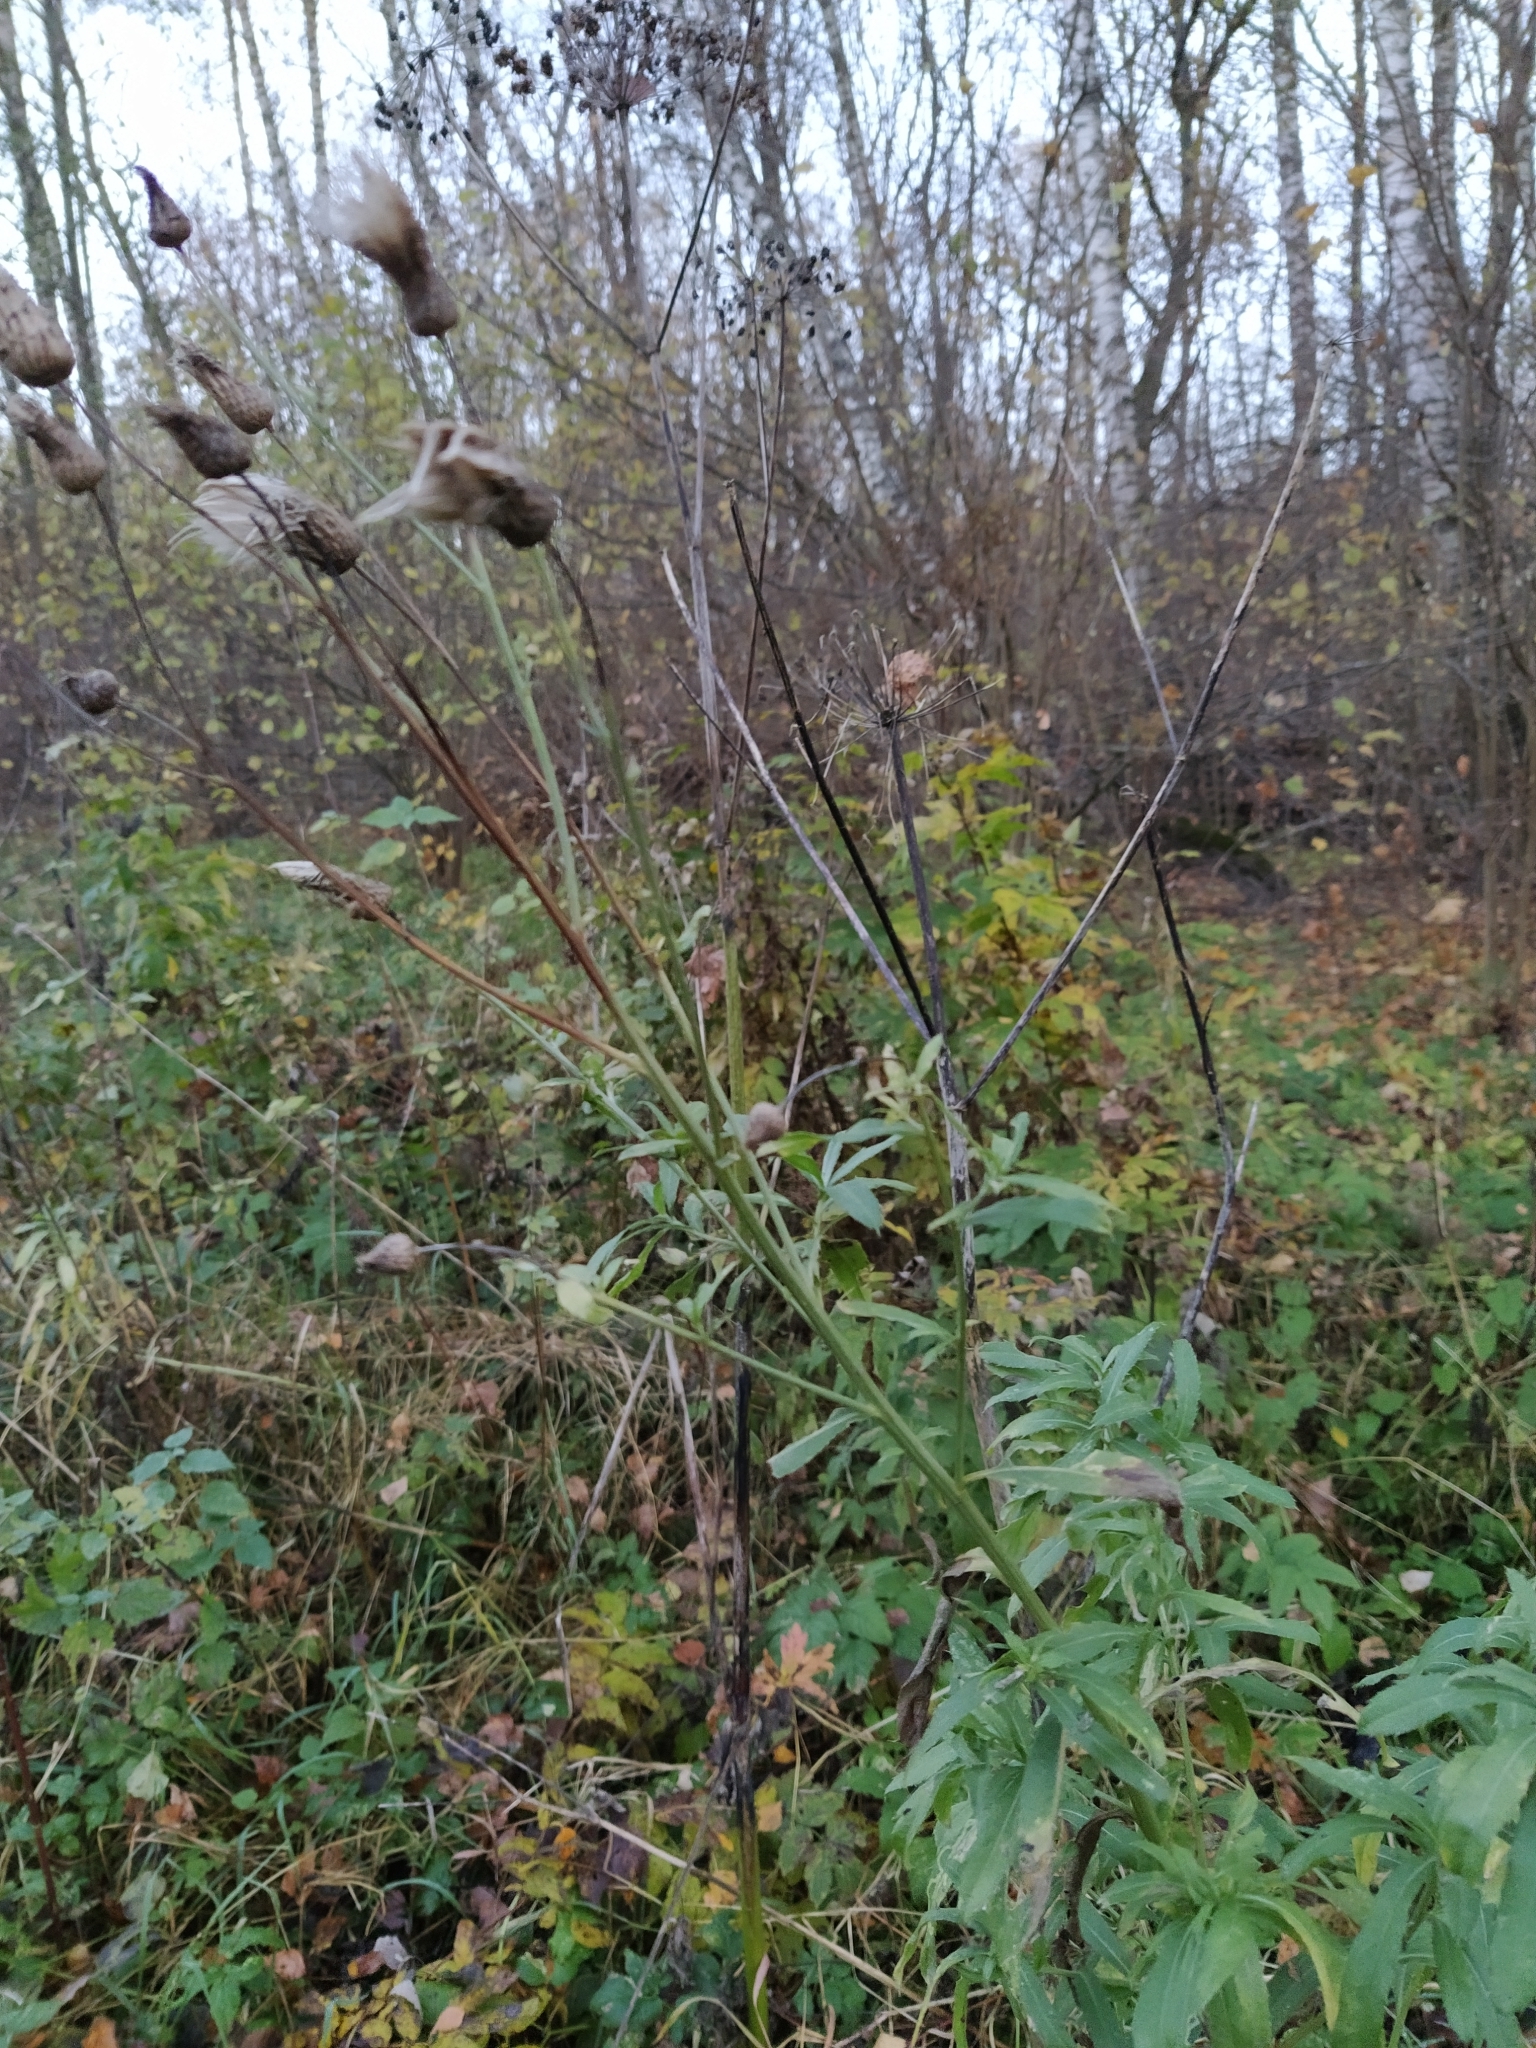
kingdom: Plantae
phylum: Tracheophyta
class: Magnoliopsida
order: Asterales
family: Asteraceae
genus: Cirsium
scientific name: Cirsium arvense
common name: Creeping thistle
